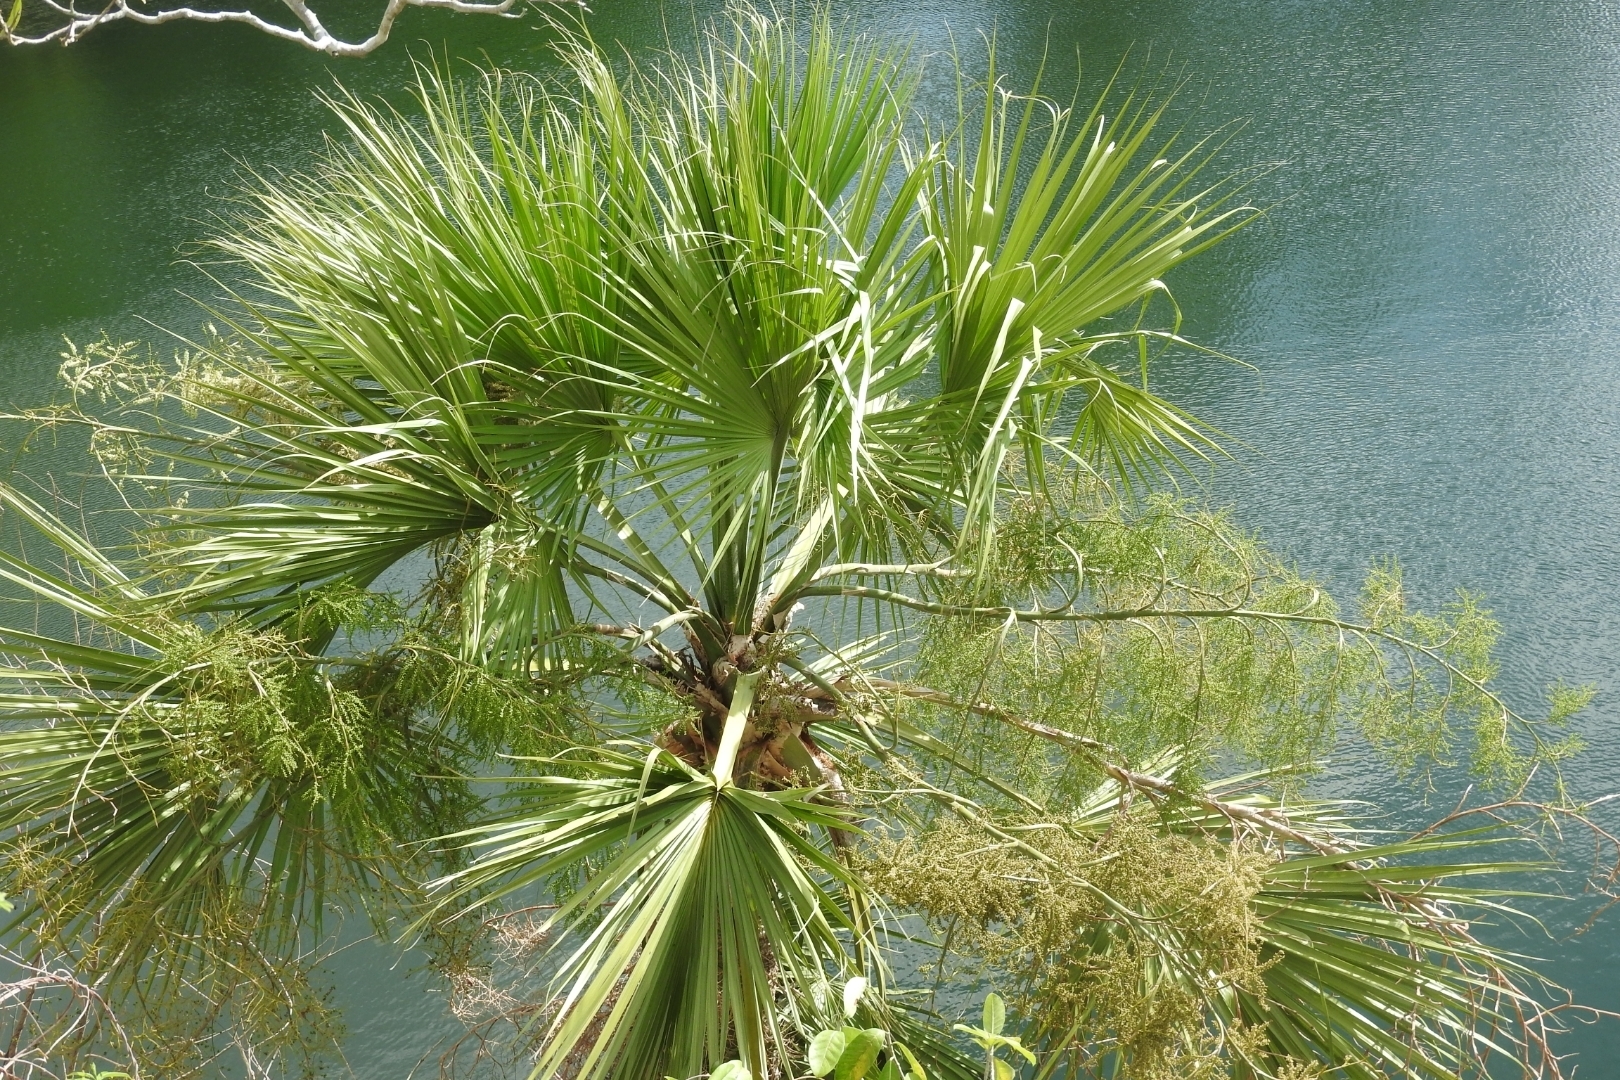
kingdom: Plantae
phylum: Tracheophyta
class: Liliopsida
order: Arecales
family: Arecaceae
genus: Thrinax
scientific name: Thrinax radiata
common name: Florida thatch
